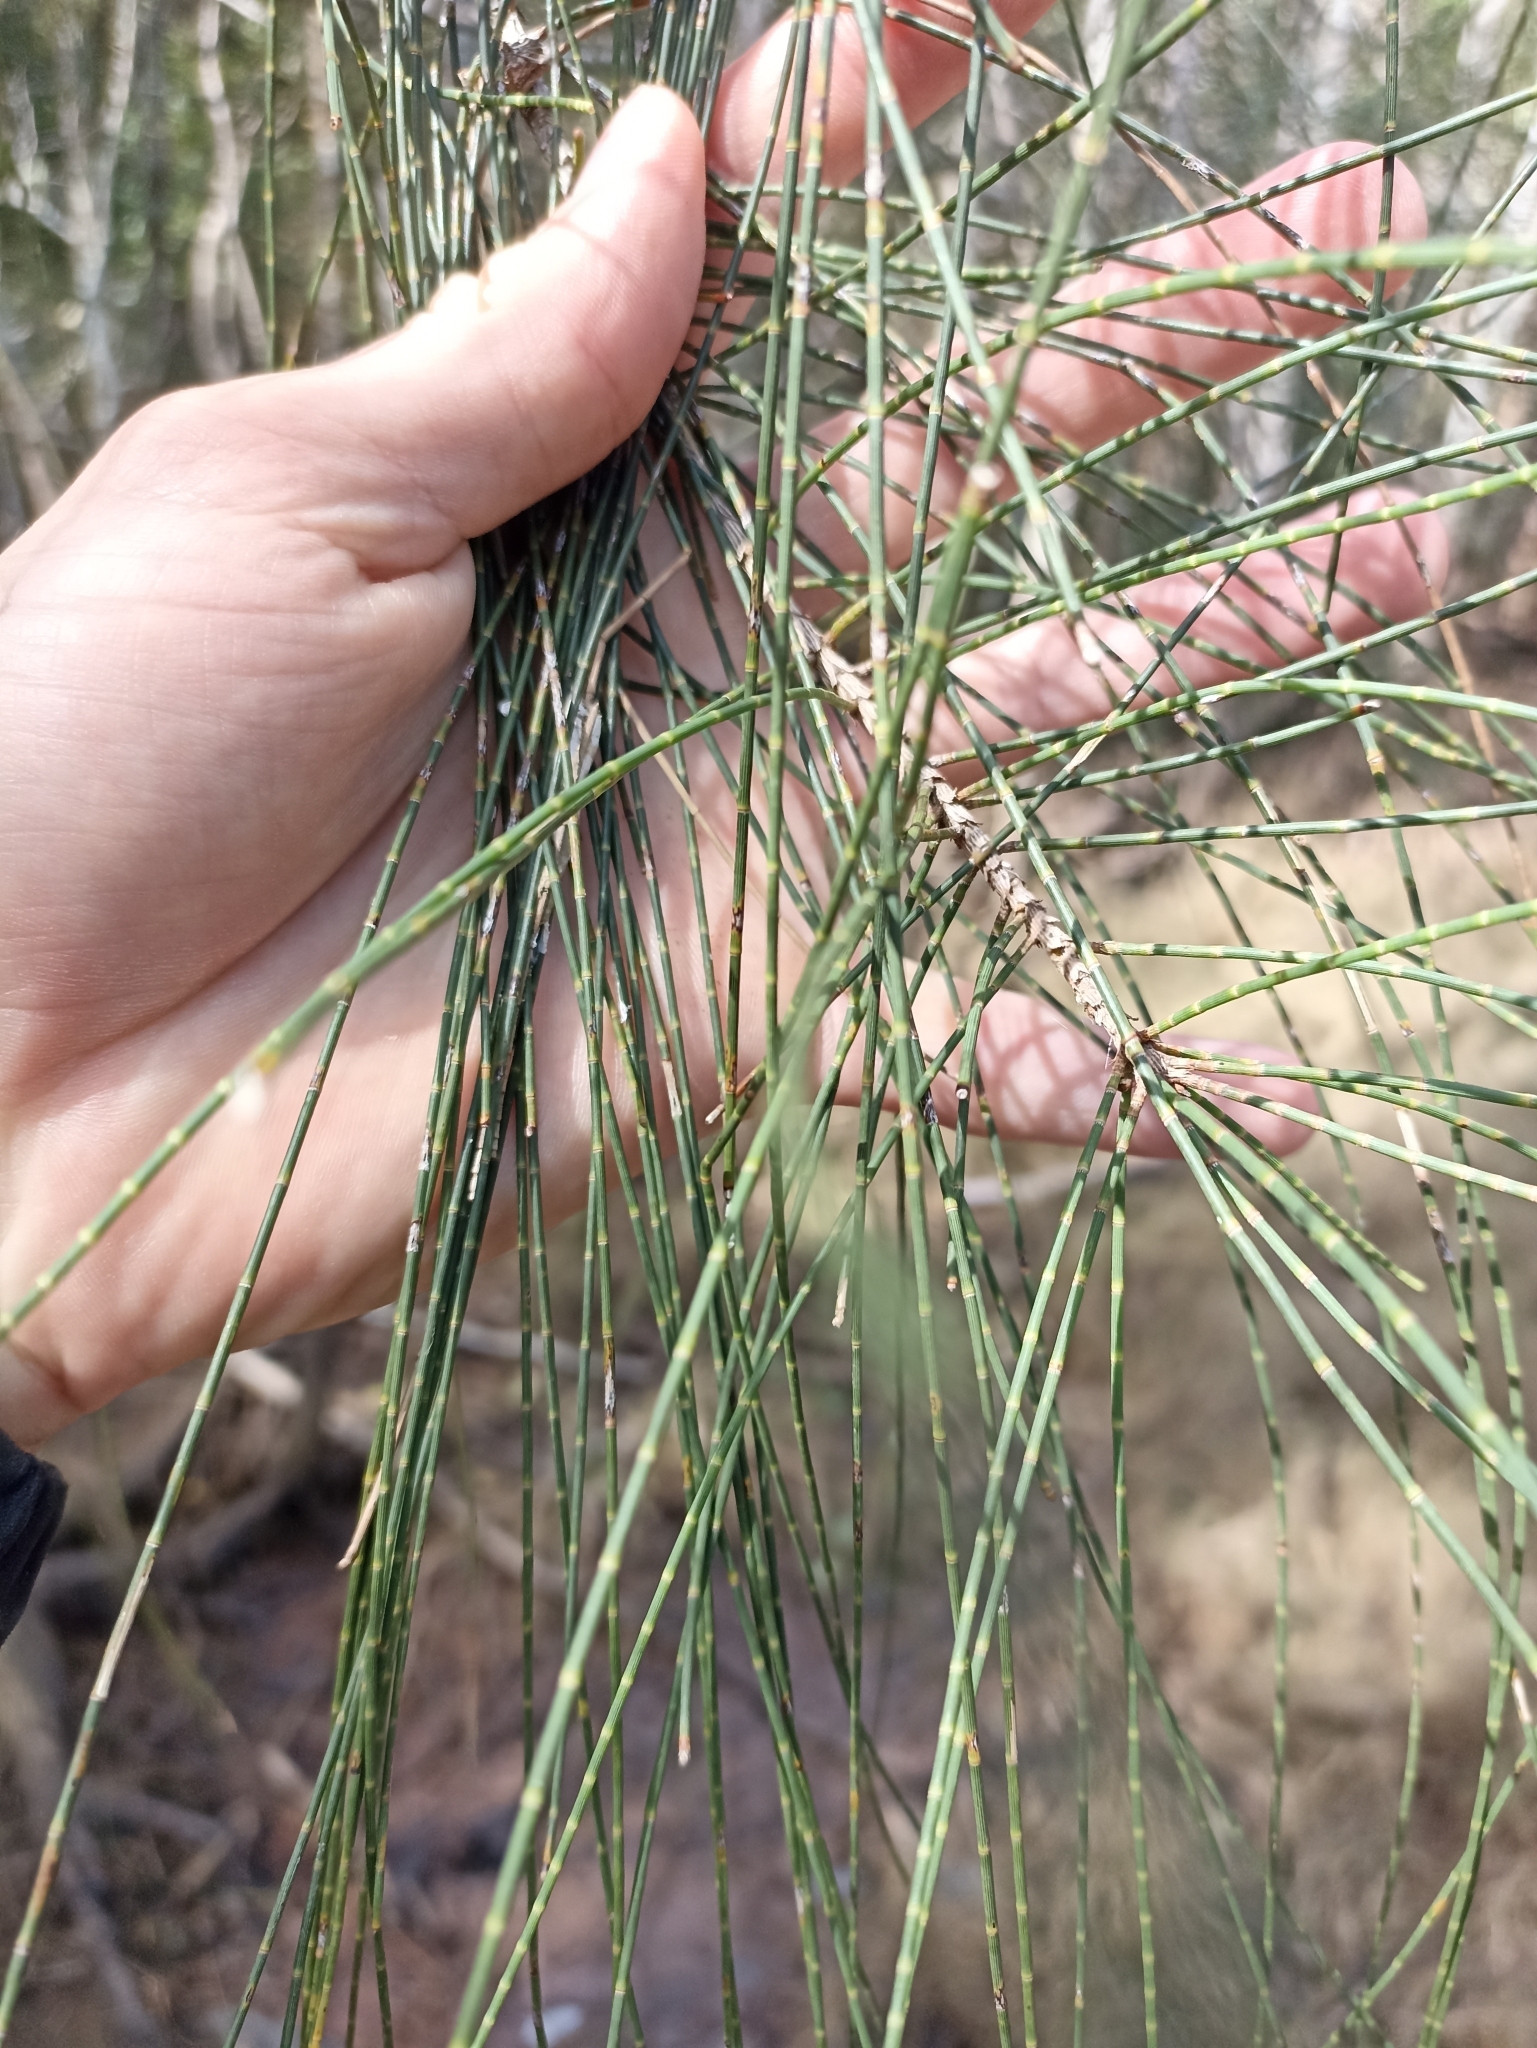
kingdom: Plantae
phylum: Tracheophyta
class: Magnoliopsida
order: Fagales
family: Casuarinaceae
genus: Casuarina
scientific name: Casuarina glauca
